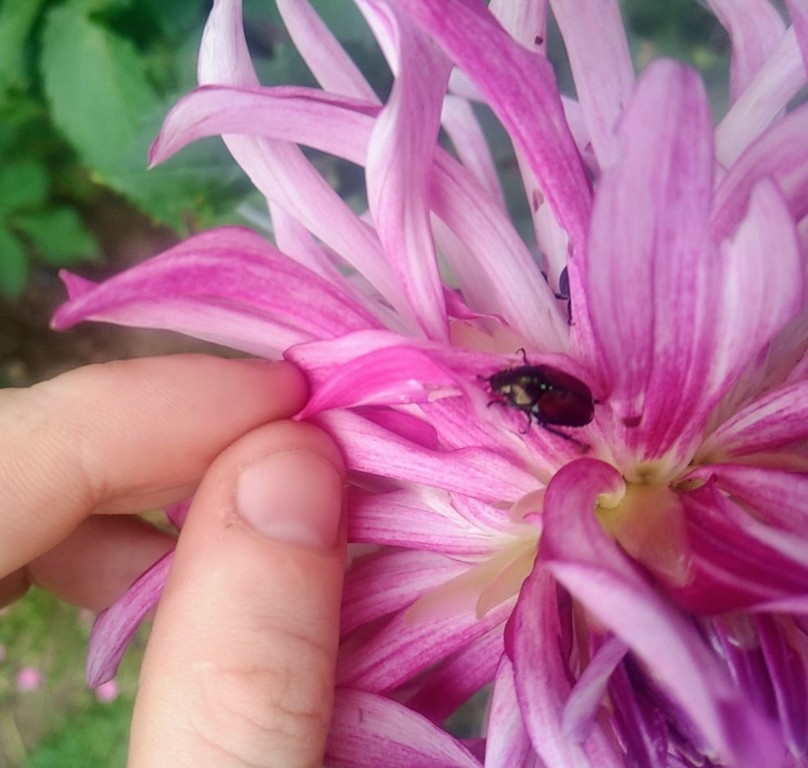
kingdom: Animalia
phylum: Arthropoda
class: Insecta
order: Coleoptera
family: Scarabaeidae
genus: Popillia
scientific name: Popillia japonica
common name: Japanese beetle
